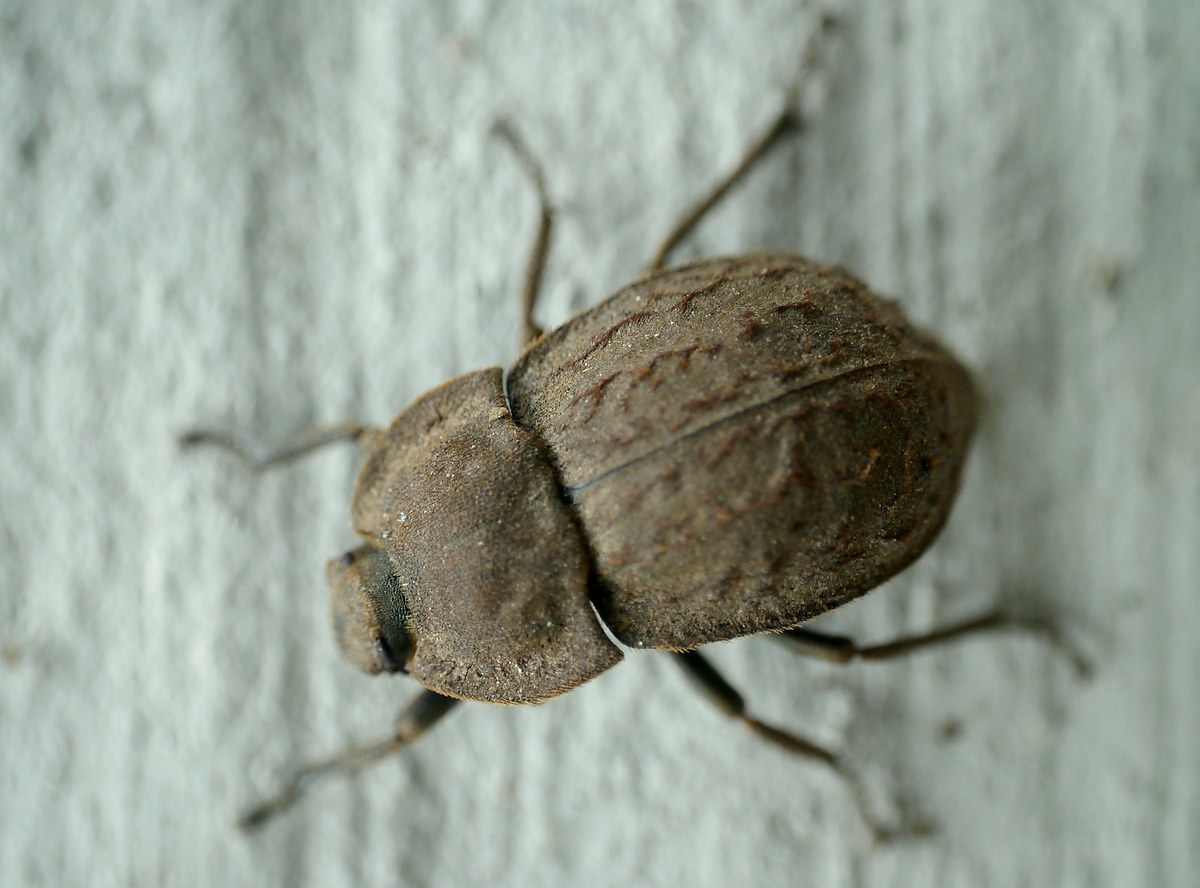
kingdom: Animalia
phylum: Arthropoda
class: Insecta
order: Coleoptera
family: Tenebrionidae
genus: Asida
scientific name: Asida lutosa
